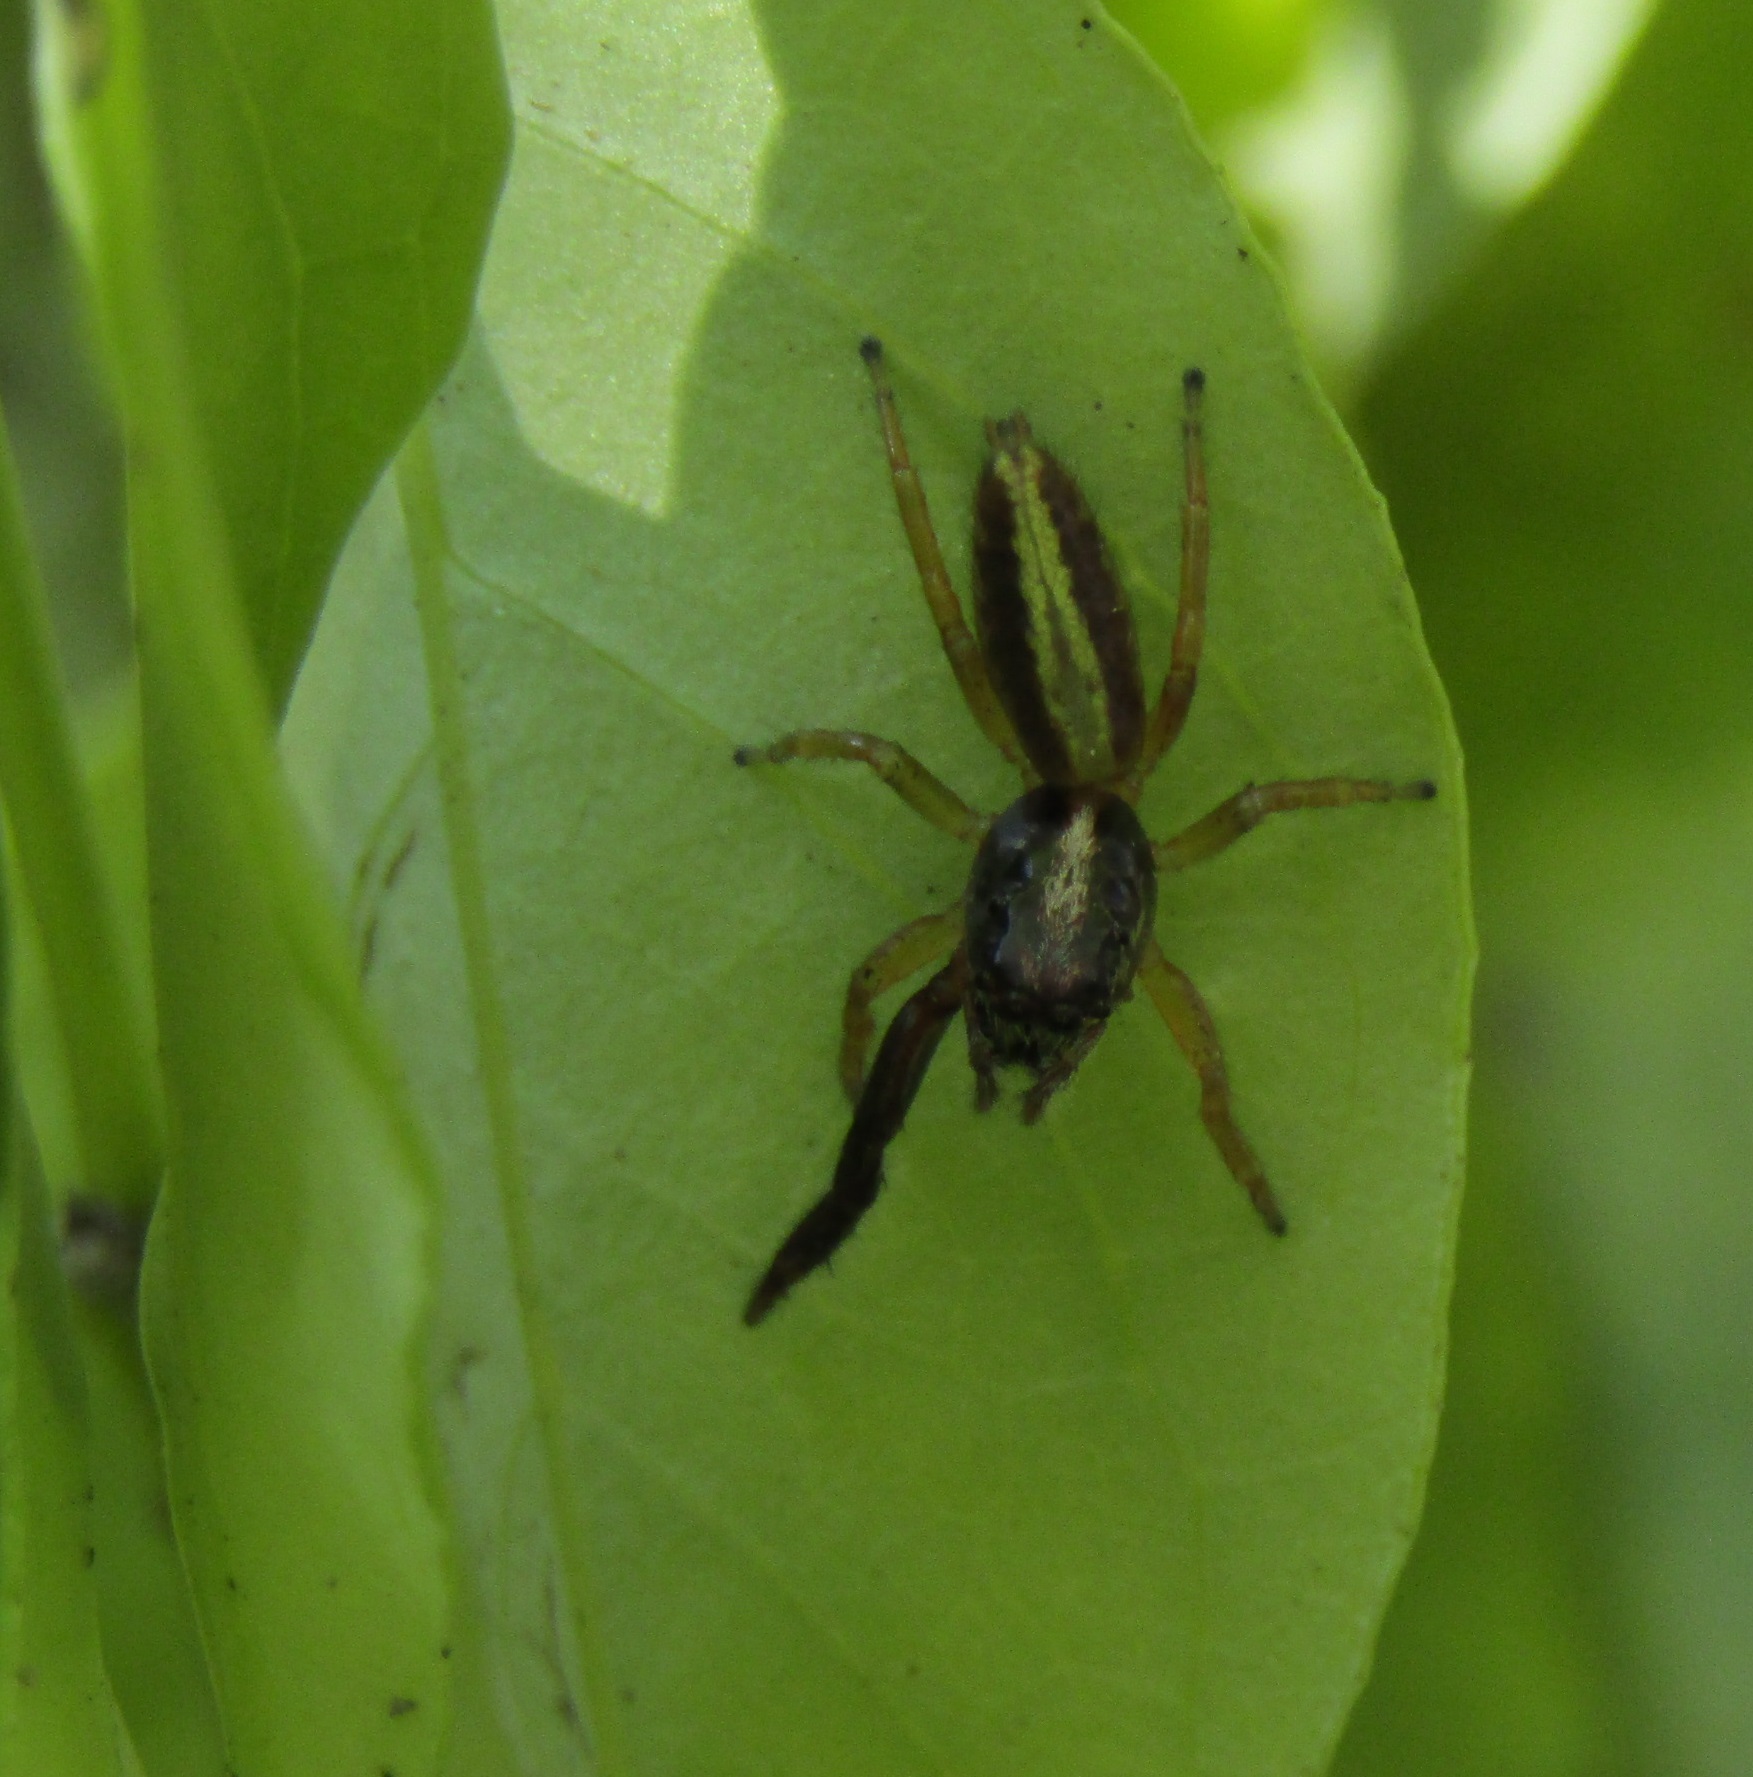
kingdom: Animalia
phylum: Arthropoda
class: Arachnida
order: Araneae
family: Salticidae
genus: Trite
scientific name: Trite planiceps
